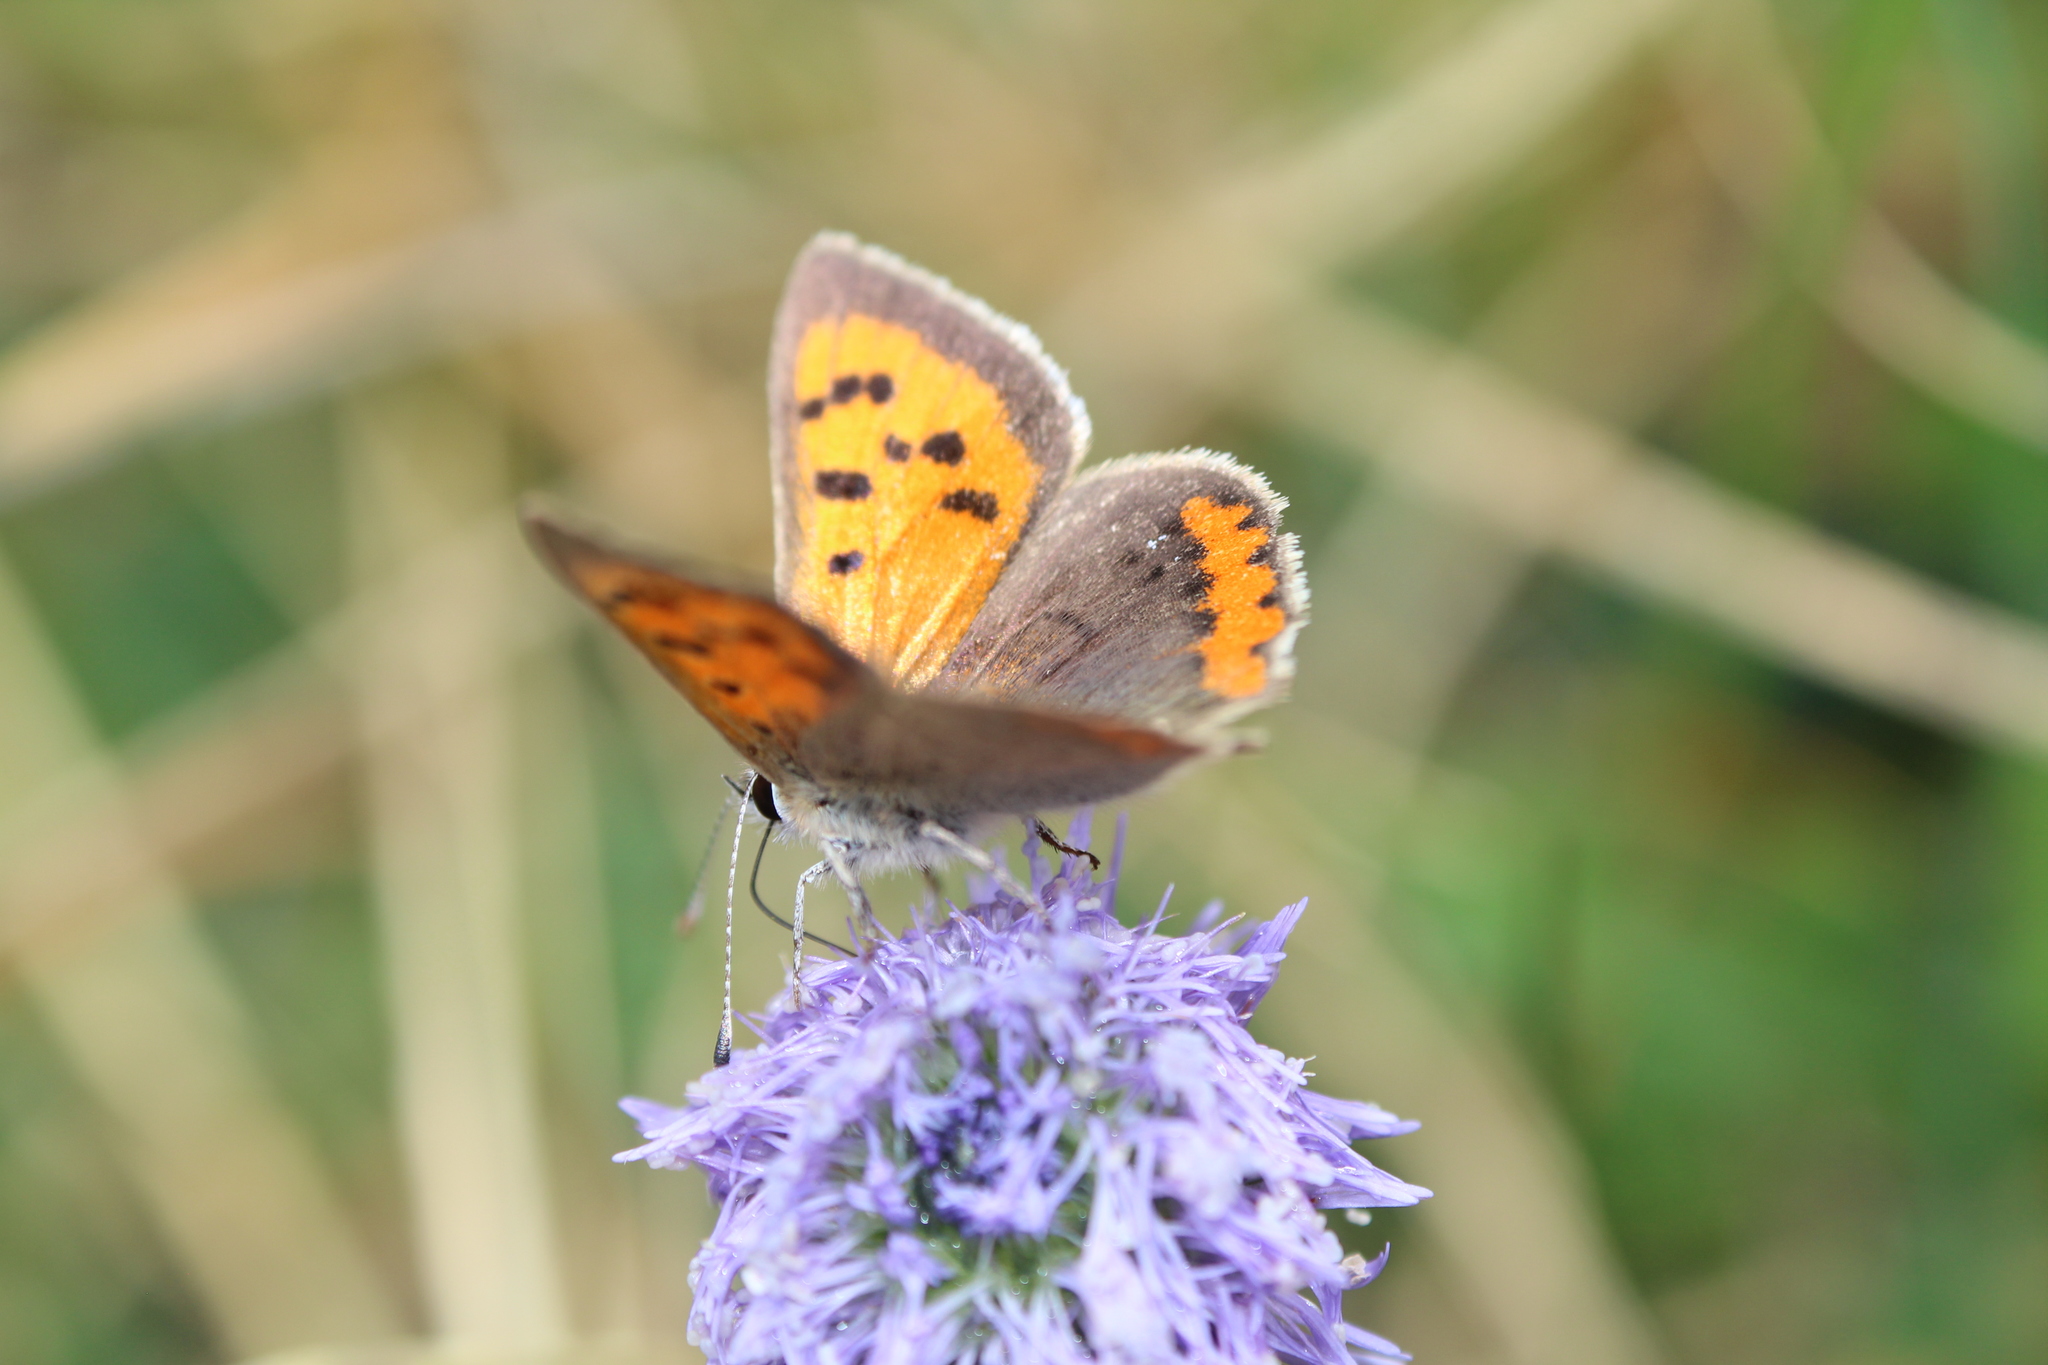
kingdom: Animalia
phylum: Arthropoda
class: Insecta
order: Lepidoptera
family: Lycaenidae
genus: Lycaena
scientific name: Lycaena phlaeas
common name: Small copper
